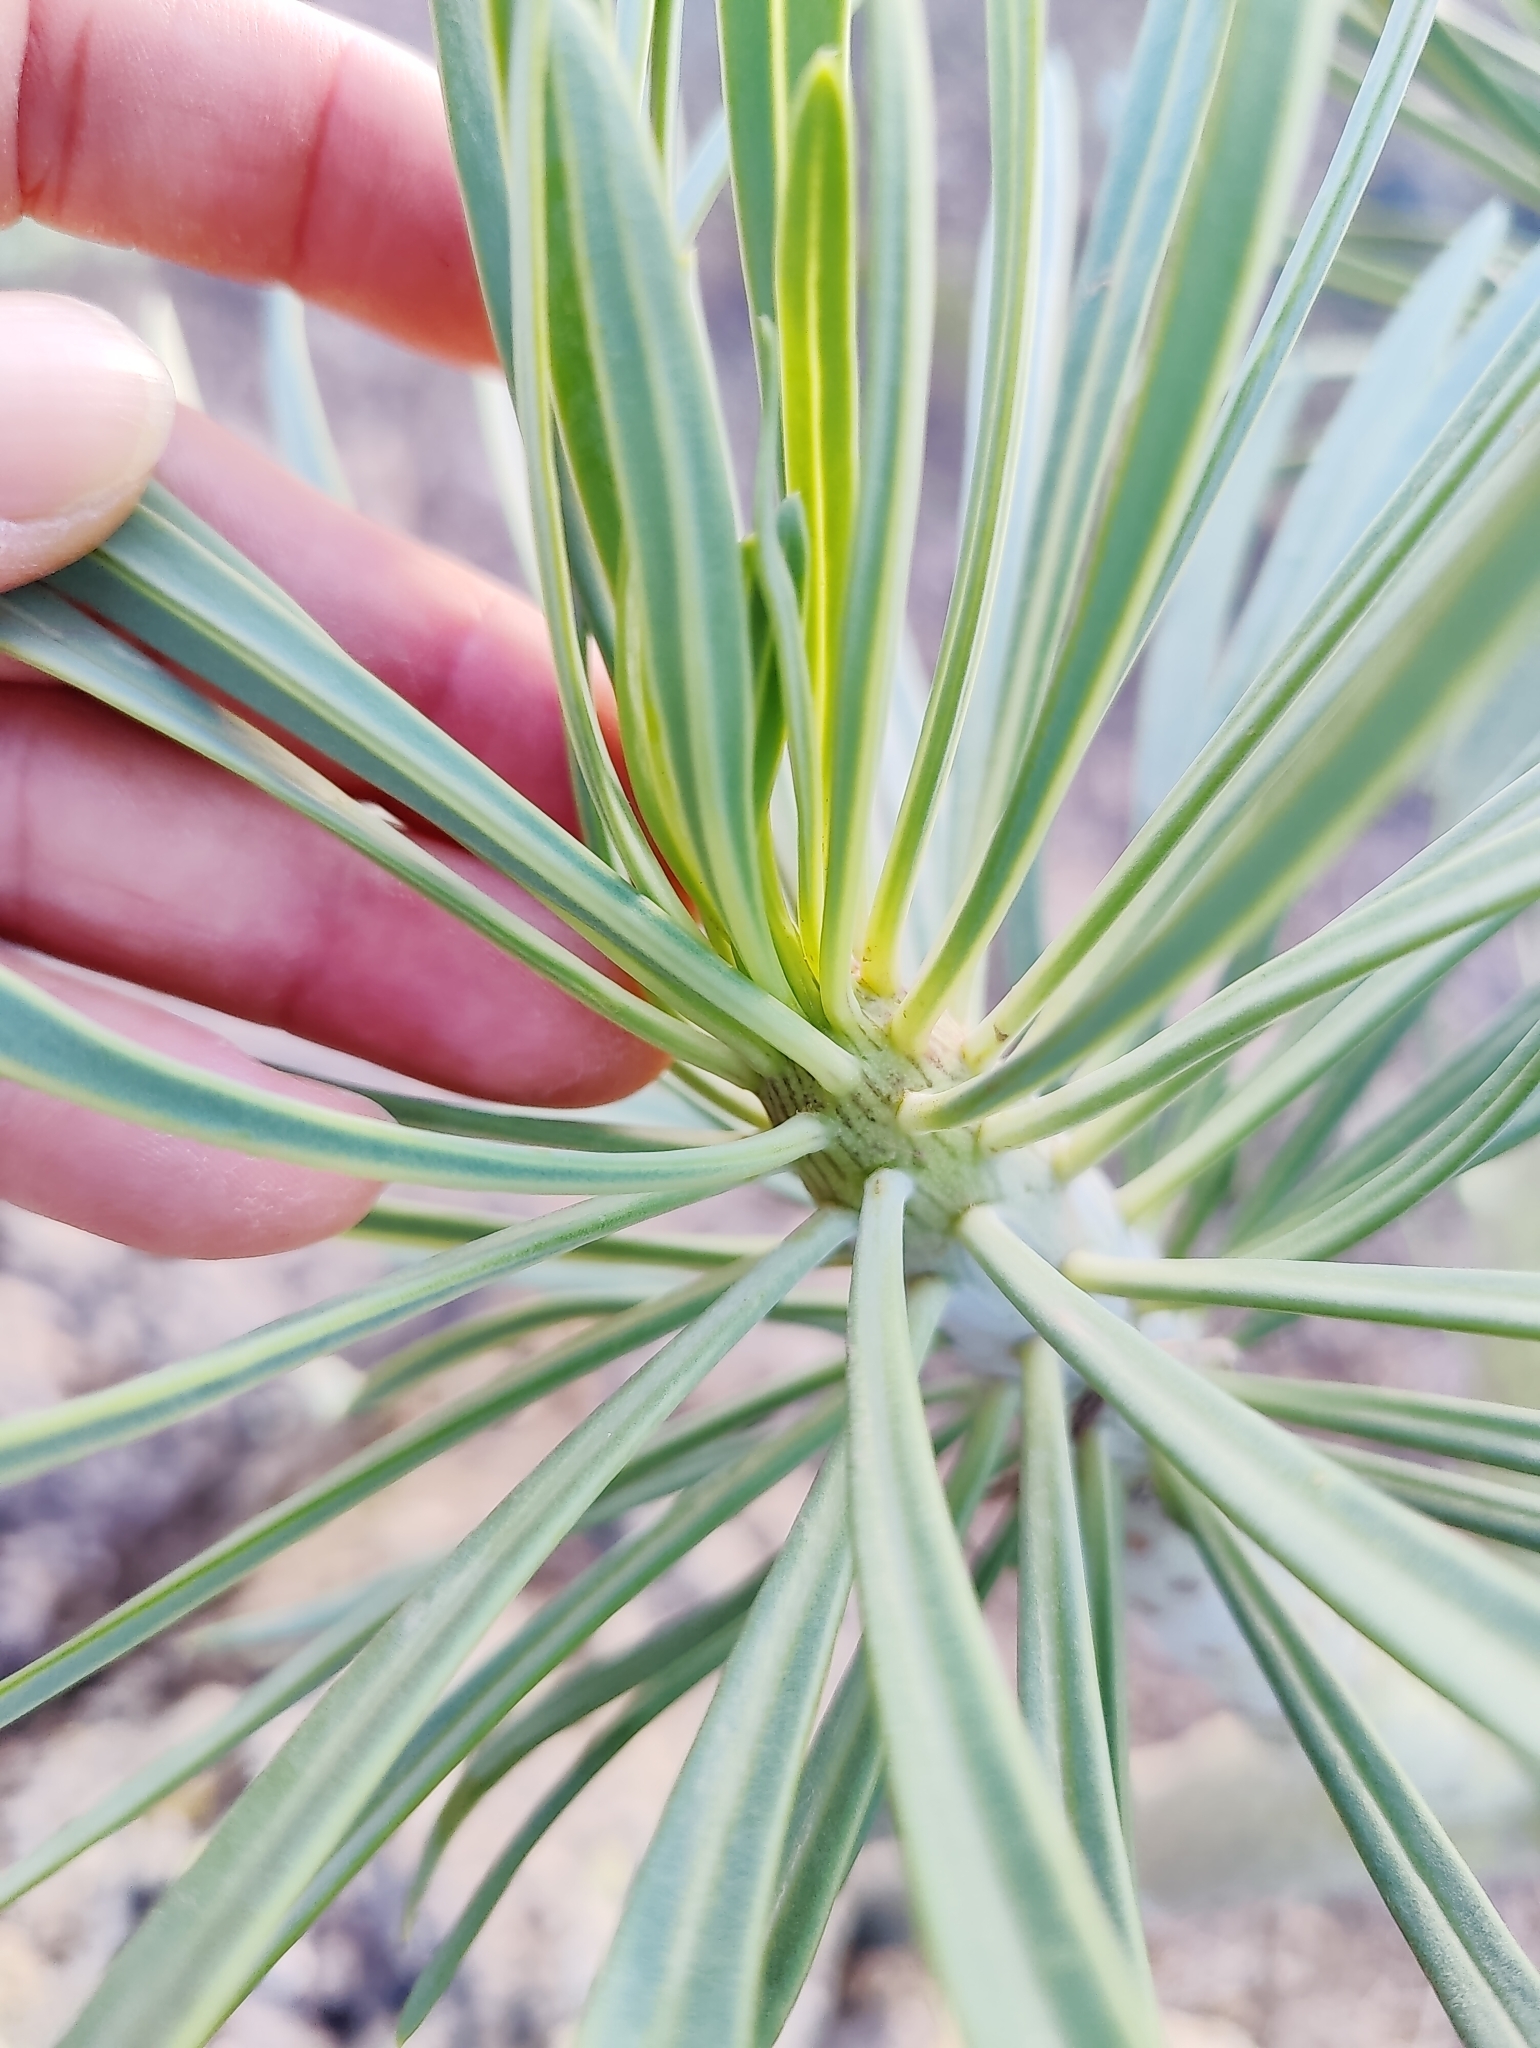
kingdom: Plantae
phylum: Tracheophyta
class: Magnoliopsida
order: Asterales
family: Asteraceae
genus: Kleinia
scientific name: Kleinia neriifolia
